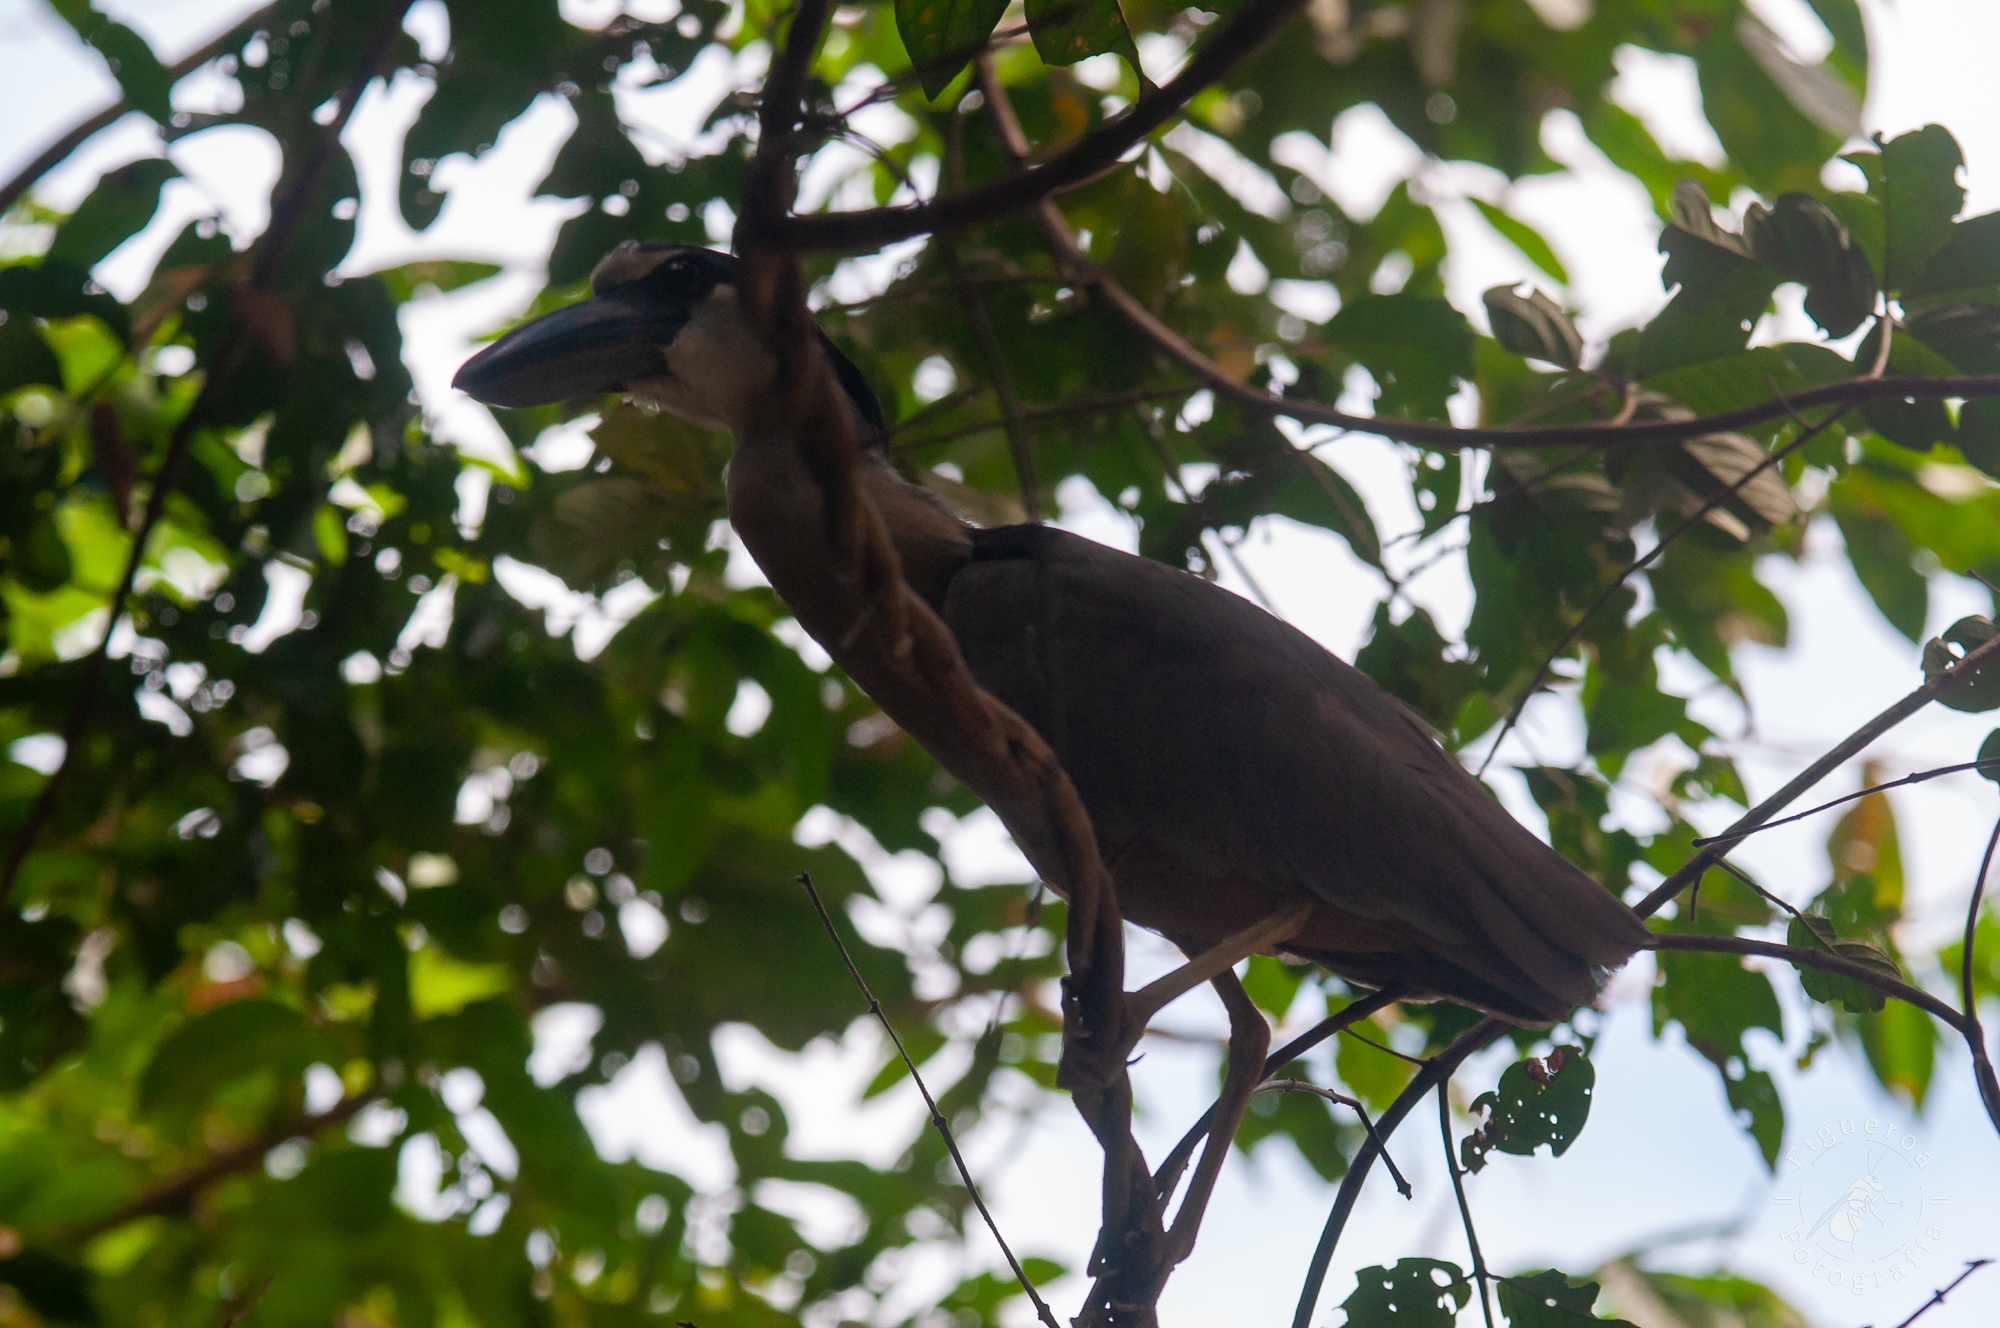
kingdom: Animalia
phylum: Chordata
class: Aves
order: Pelecaniformes
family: Ardeidae
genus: Cochlearius
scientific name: Cochlearius cochlearius
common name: Boat-billed heron
